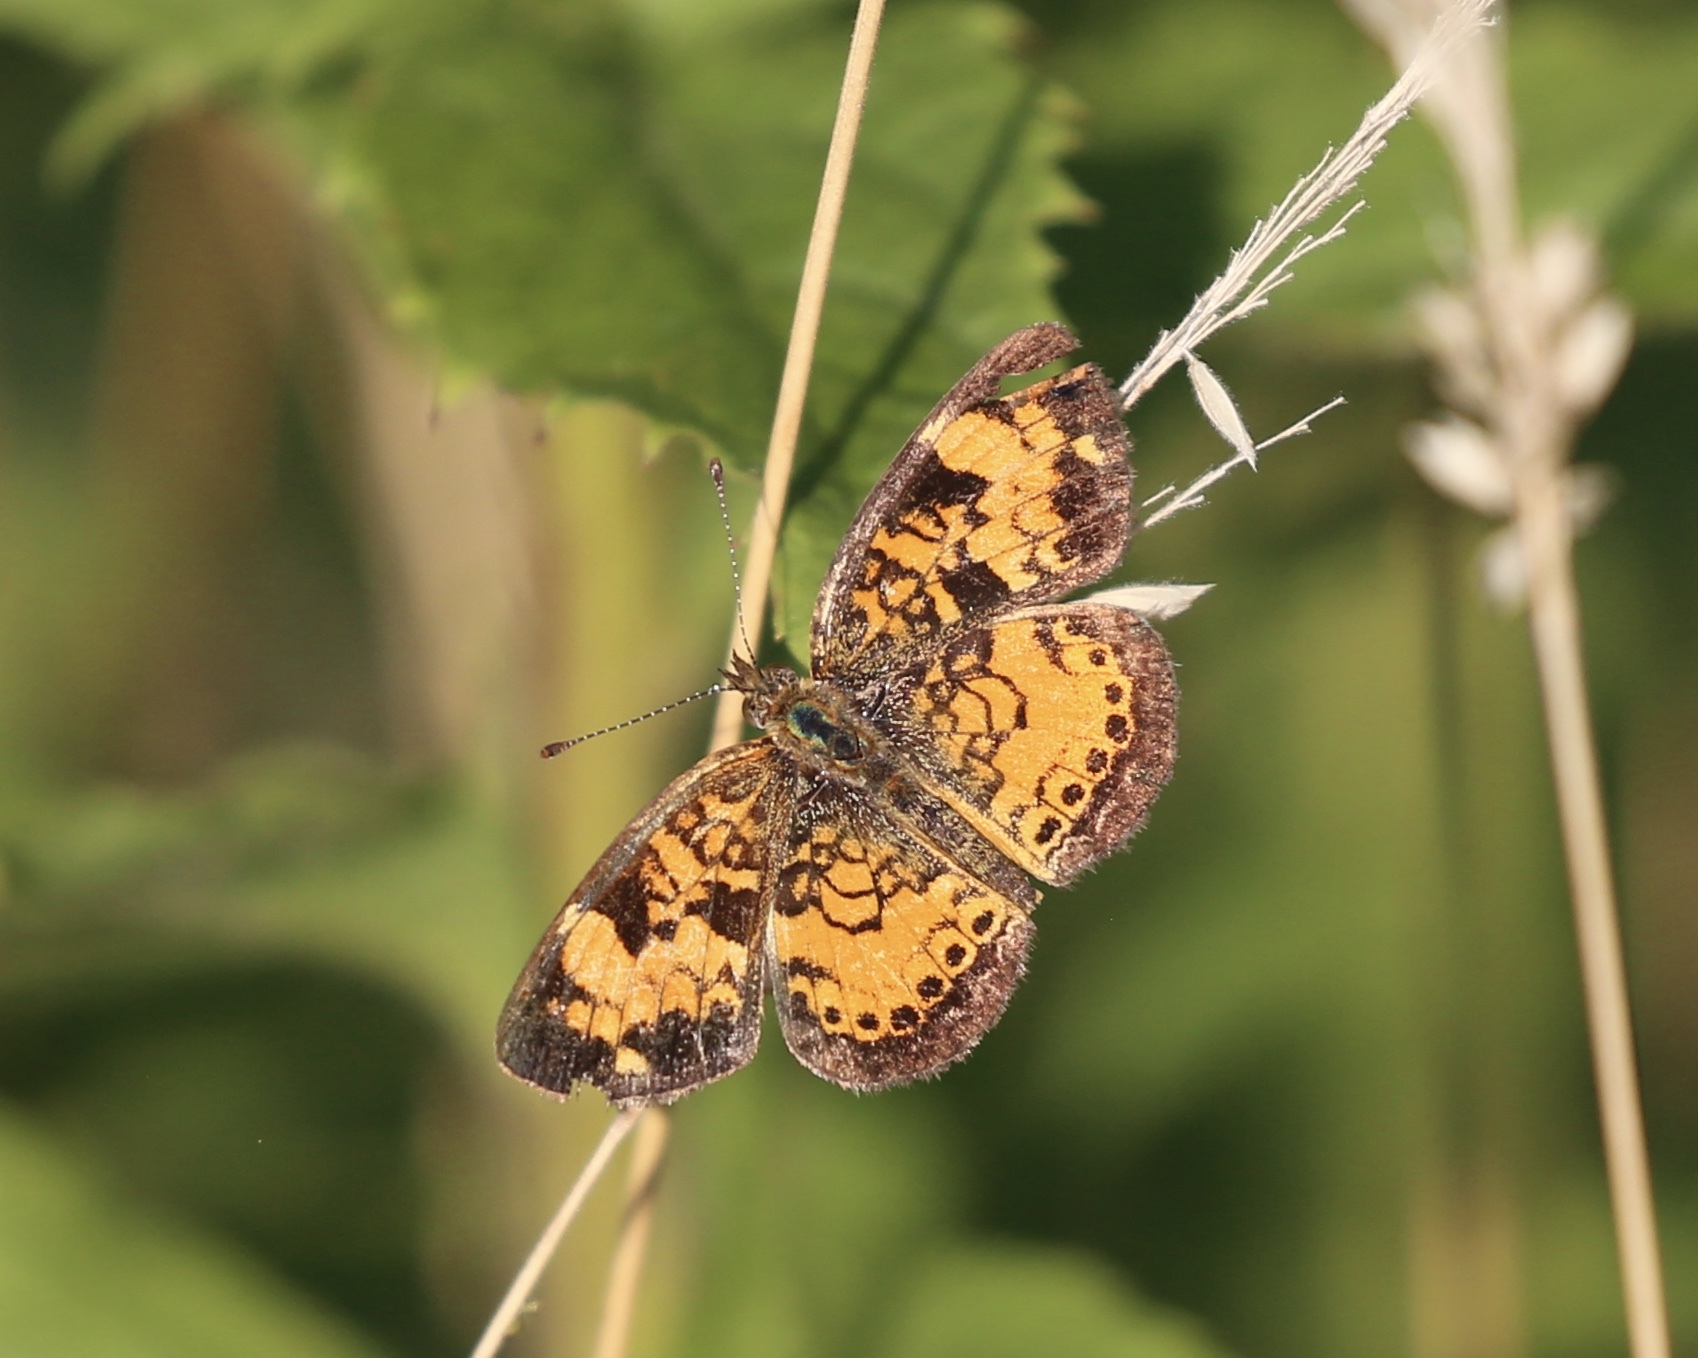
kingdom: Animalia
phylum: Arthropoda
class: Insecta
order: Lepidoptera
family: Nymphalidae
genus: Phyciodes
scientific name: Phyciodes tharos
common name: Pearl crescent
